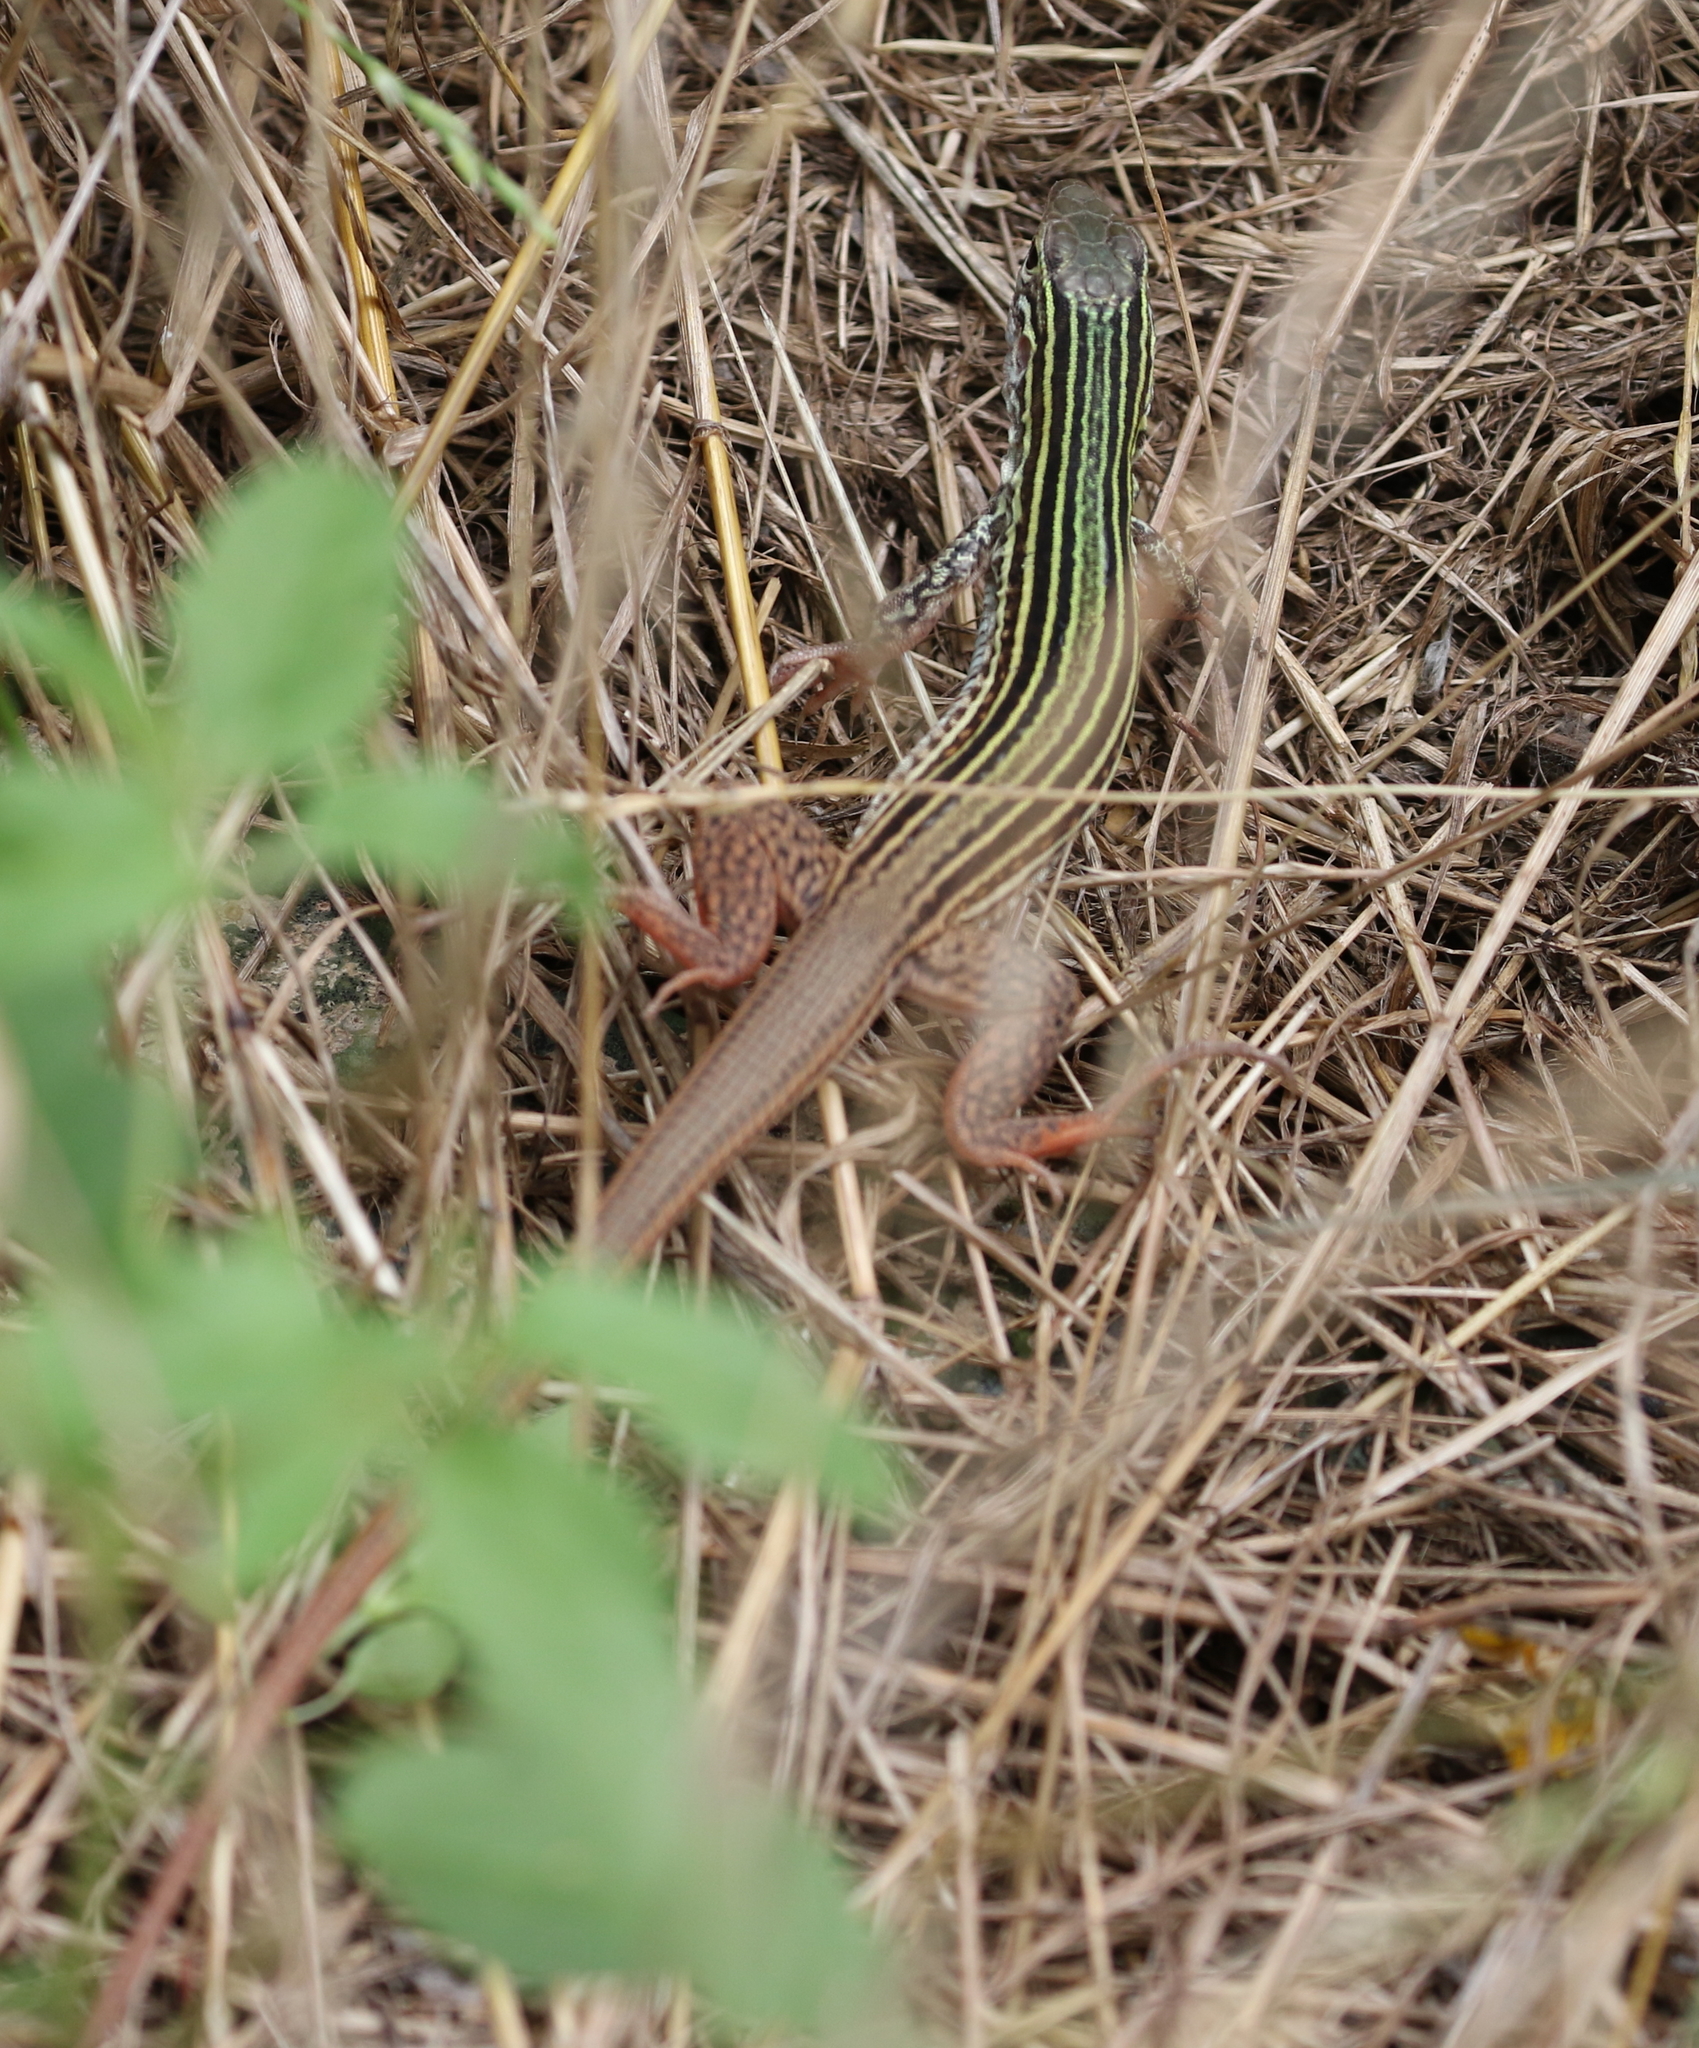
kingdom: Animalia
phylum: Chordata
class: Squamata
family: Teiidae
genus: Aspidoscelis
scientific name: Aspidoscelis gularis
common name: Eastern spotted whiptail
